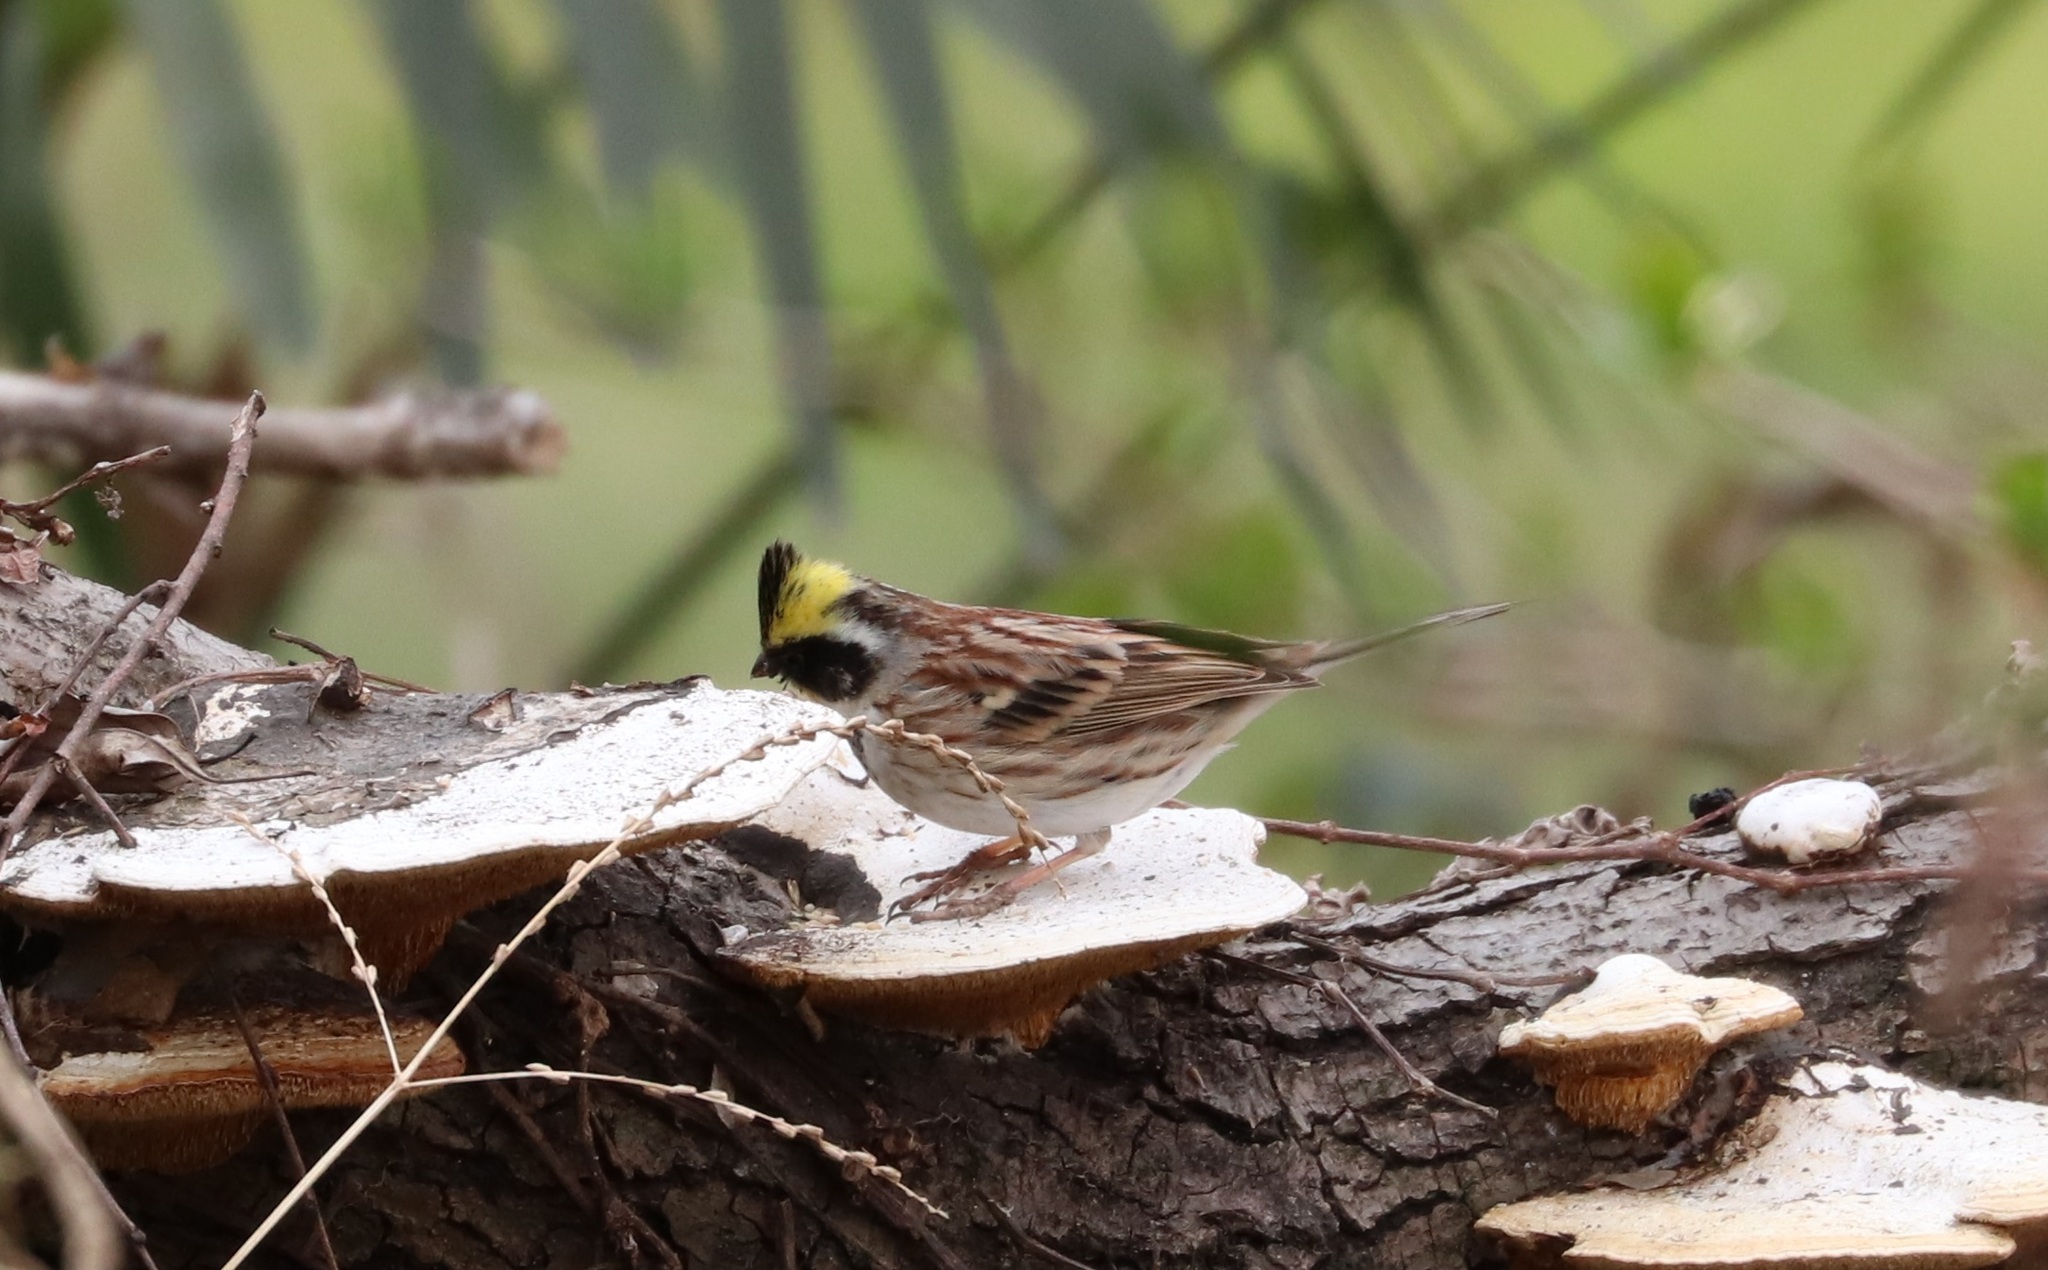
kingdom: Animalia
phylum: Chordata
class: Aves
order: Passeriformes
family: Emberizidae
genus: Emberiza
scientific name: Emberiza elegans
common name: Yellow-throated bunting
